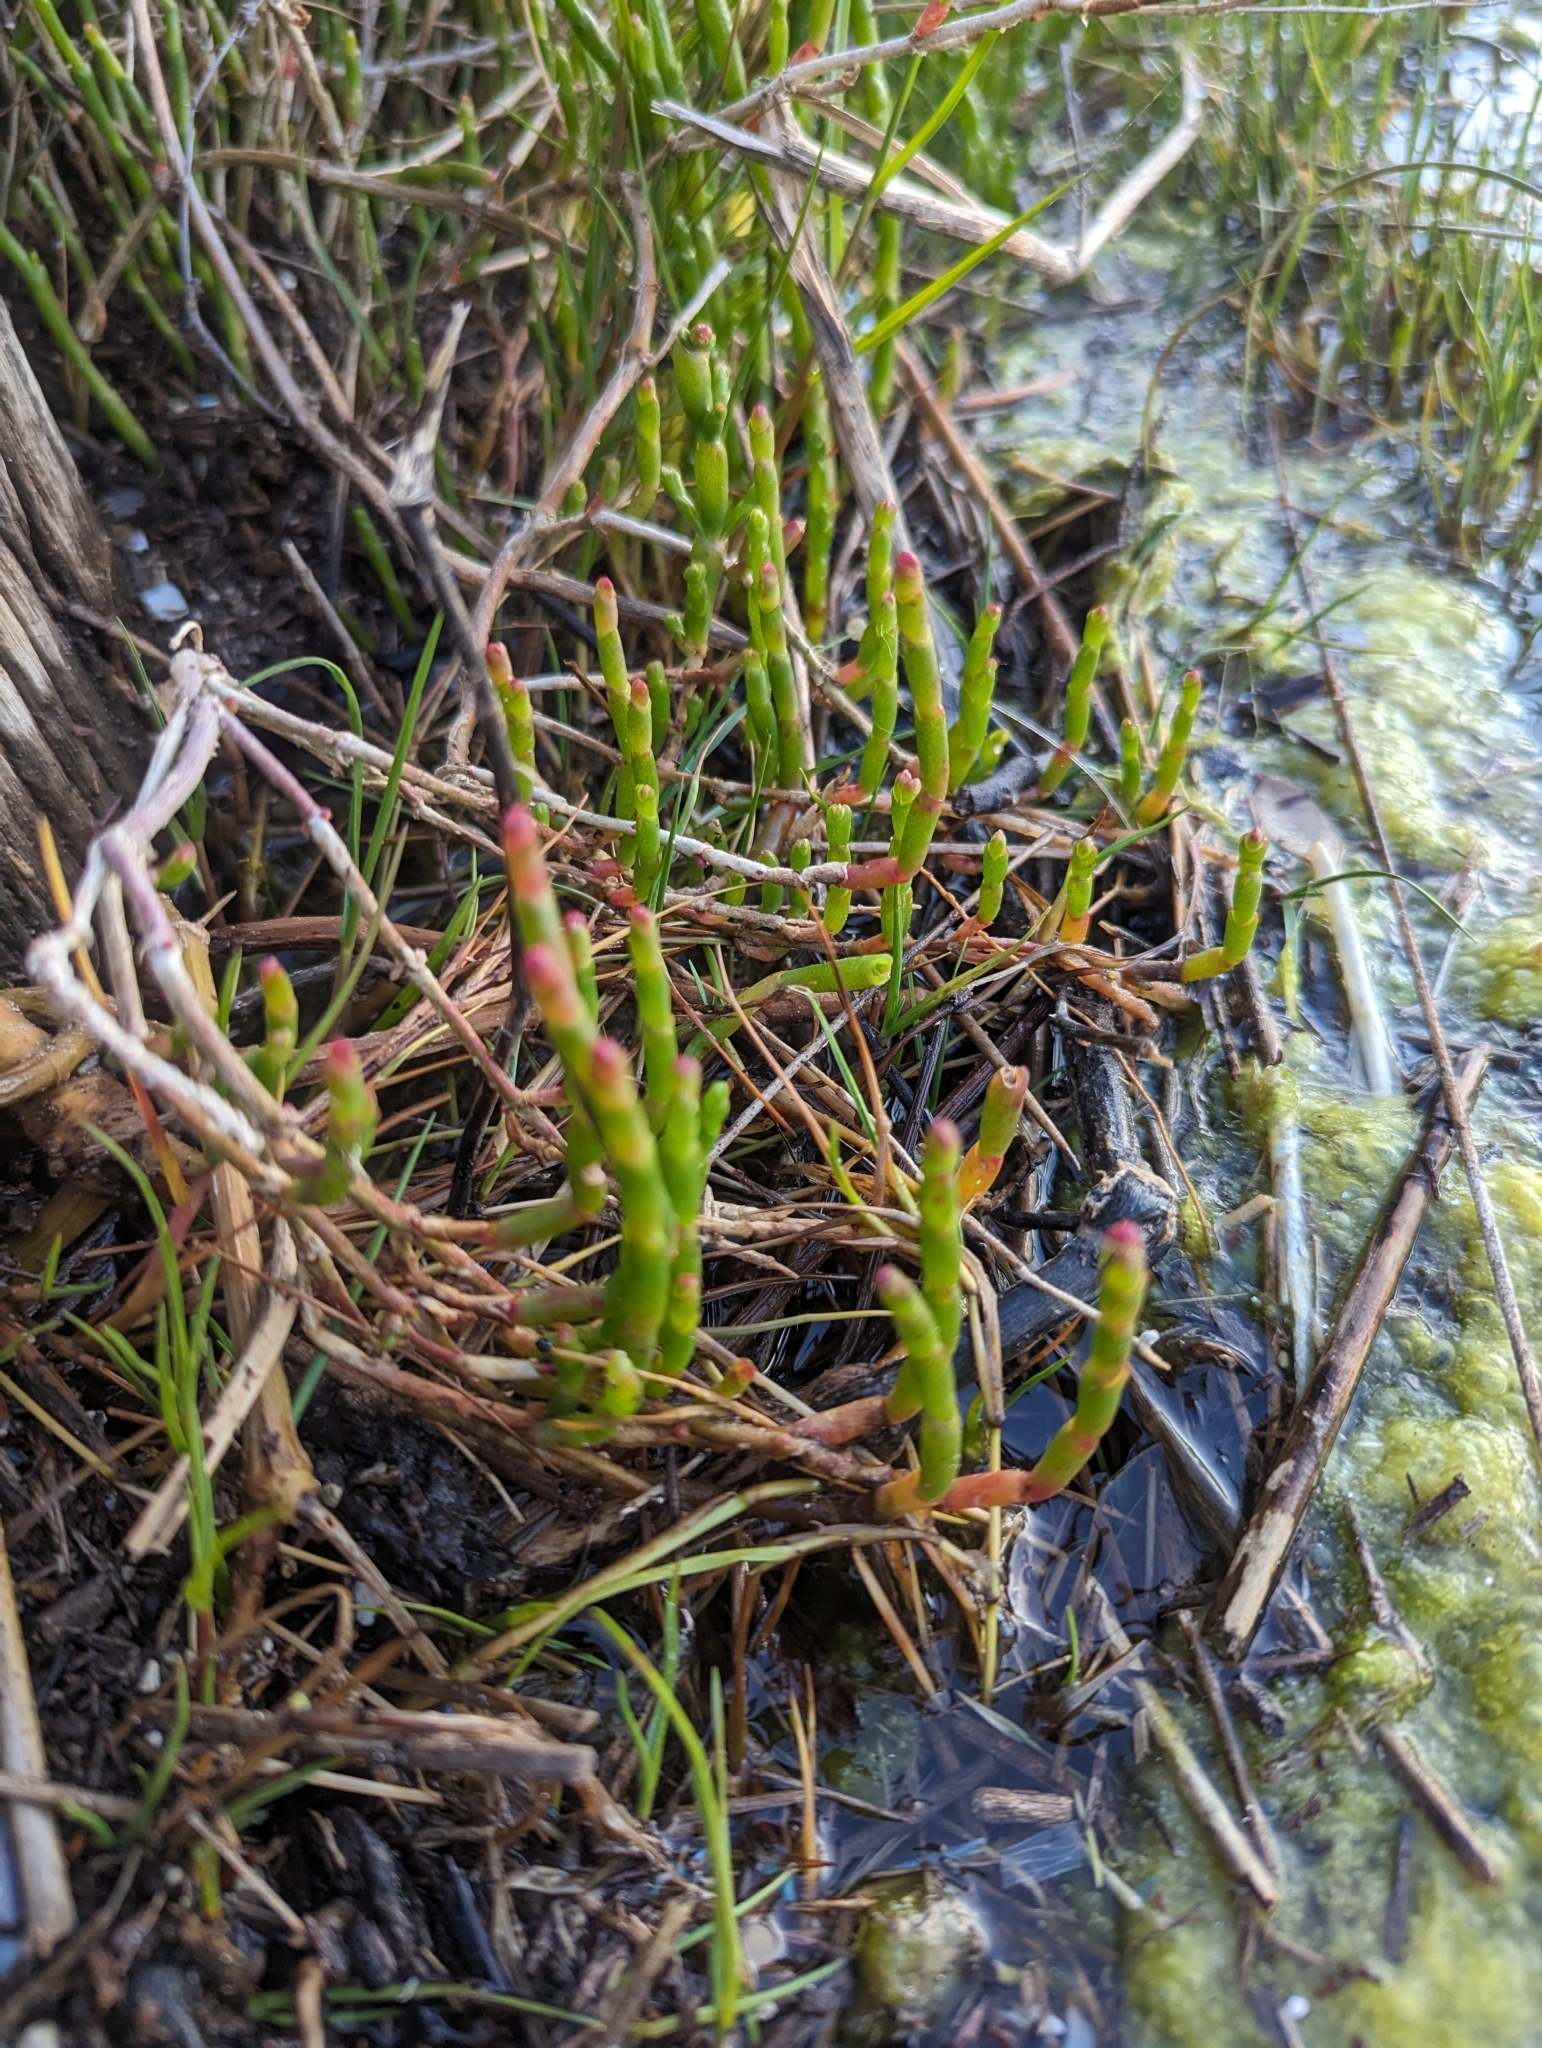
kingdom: Plantae
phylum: Tracheophyta
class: Magnoliopsida
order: Caryophyllales
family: Amaranthaceae
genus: Salicornia
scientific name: Salicornia quinqueflora
